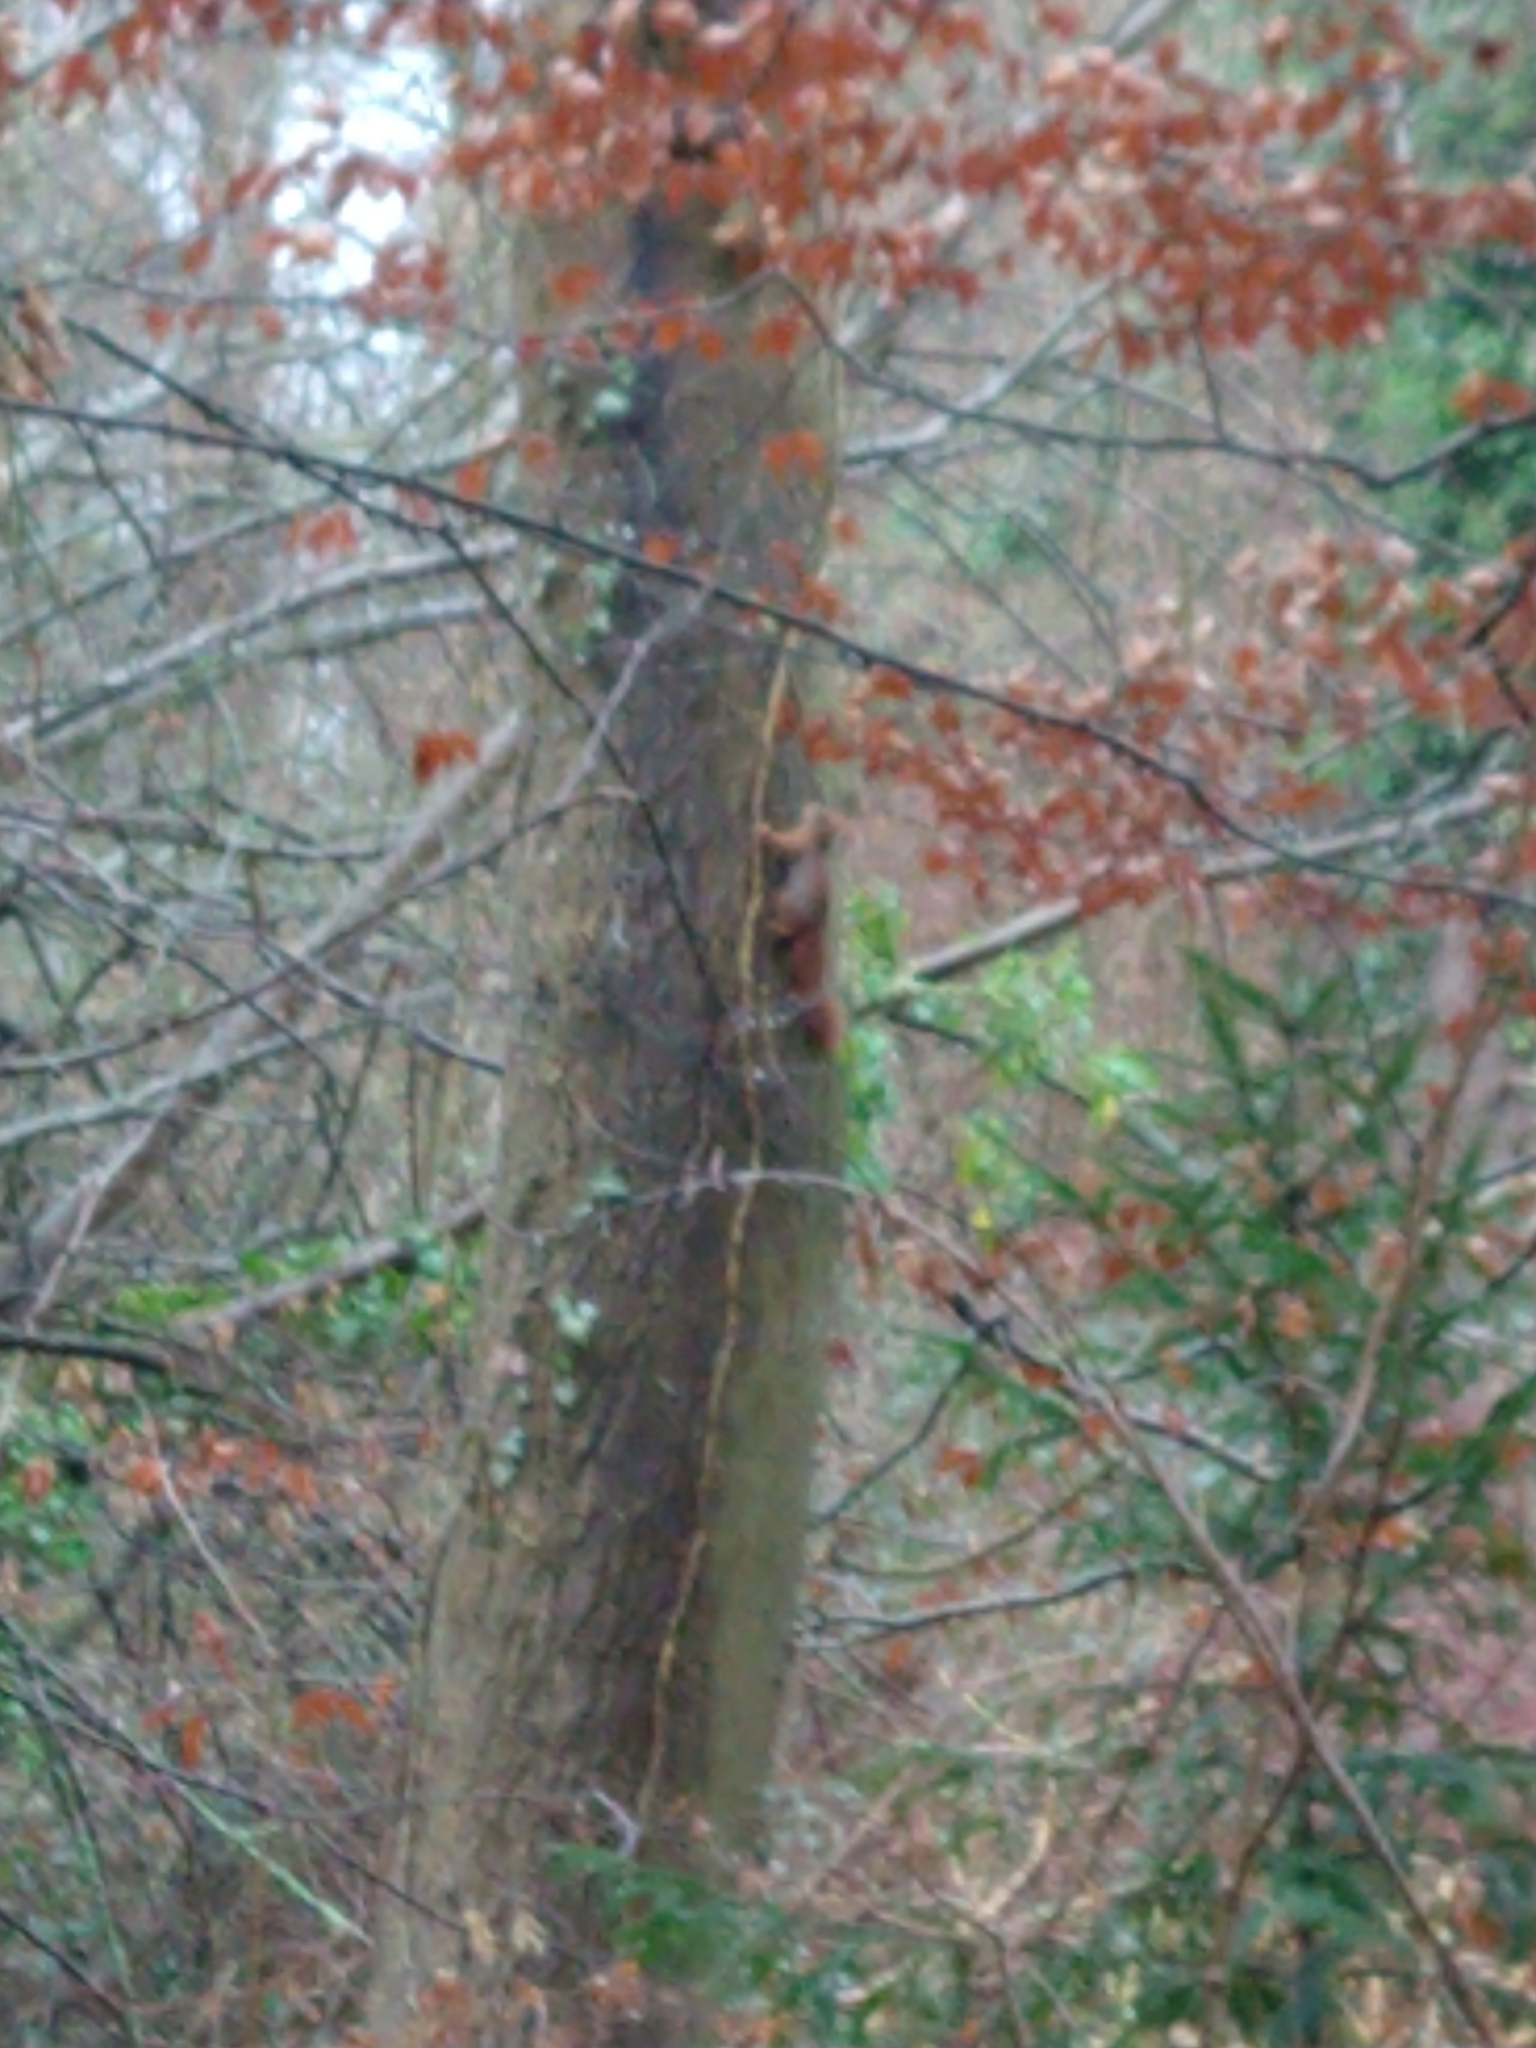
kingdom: Animalia
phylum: Chordata
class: Mammalia
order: Rodentia
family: Sciuridae
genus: Sciurus
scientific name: Sciurus vulgaris
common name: Eurasian red squirrel
